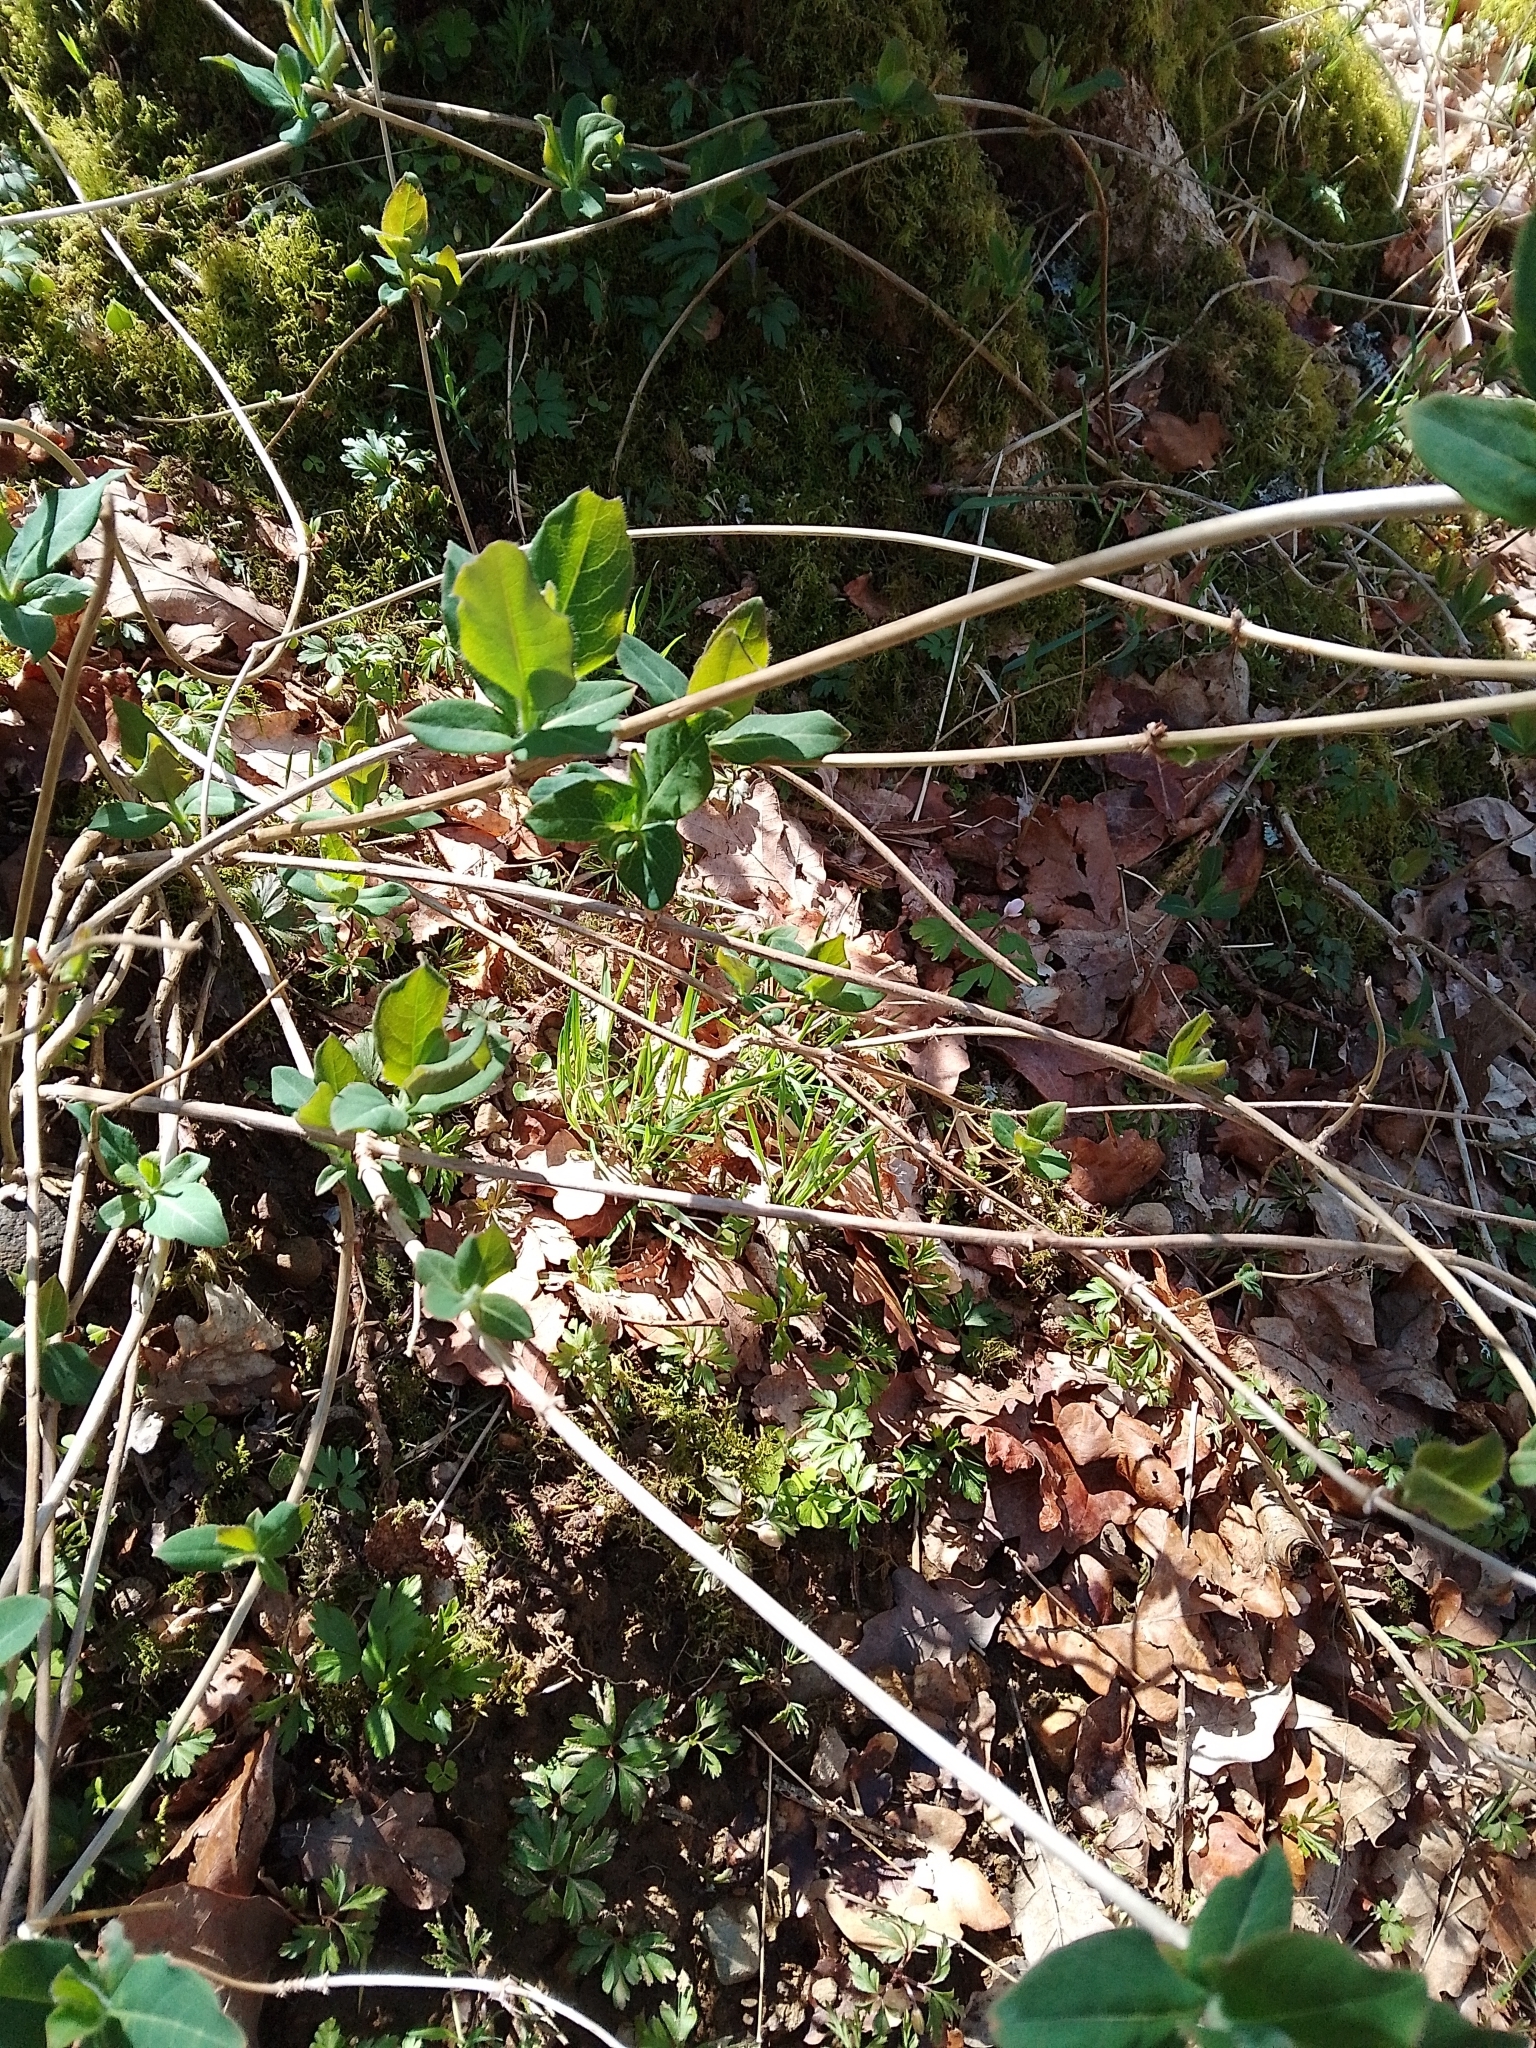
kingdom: Plantae
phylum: Tracheophyta
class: Magnoliopsida
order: Dipsacales
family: Caprifoliaceae
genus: Lonicera
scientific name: Lonicera periclymenum
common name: European honeysuckle
